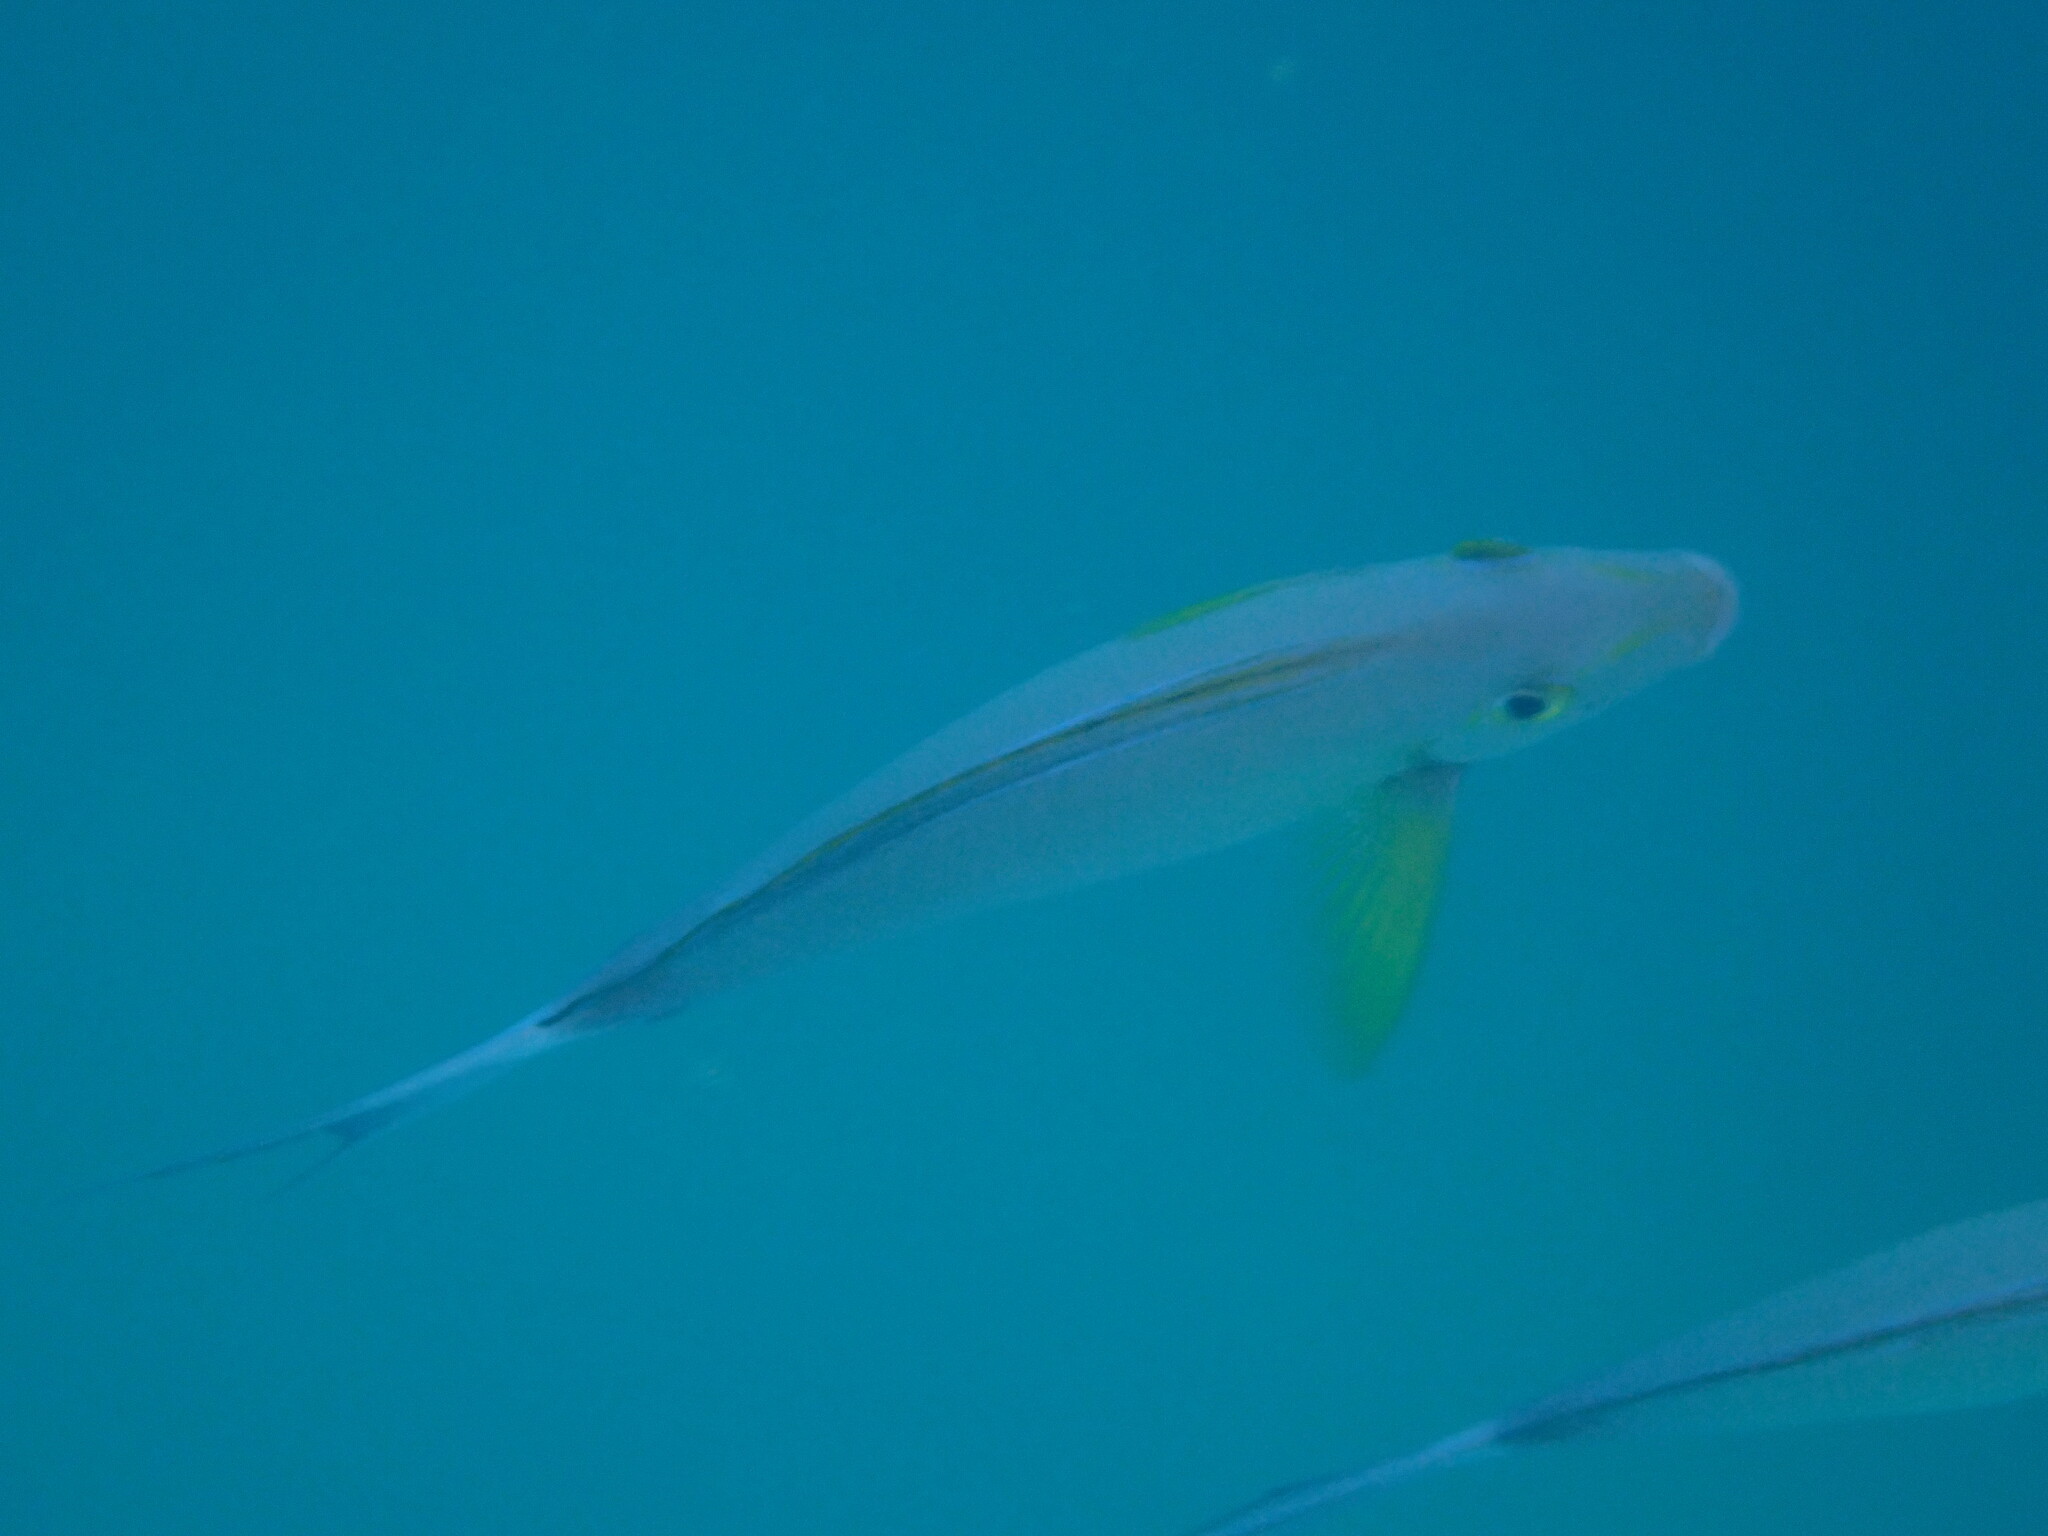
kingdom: Animalia
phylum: Chordata
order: Perciformes
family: Acanthuridae
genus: Acanthurus
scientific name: Acanthurus xanthopterus
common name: Cuvier's surgeonfish
